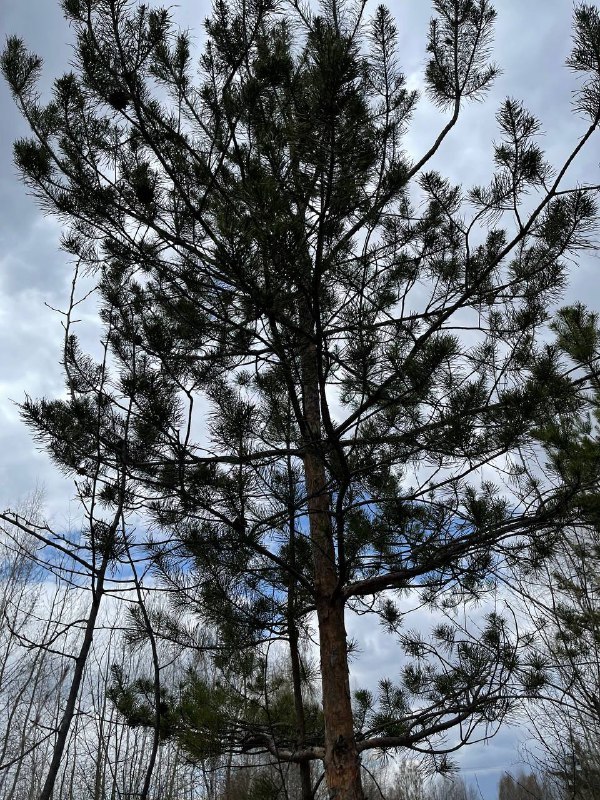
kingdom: Plantae
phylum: Tracheophyta
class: Pinopsida
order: Pinales
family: Pinaceae
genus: Pinus
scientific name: Pinus sylvestris
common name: Scots pine
